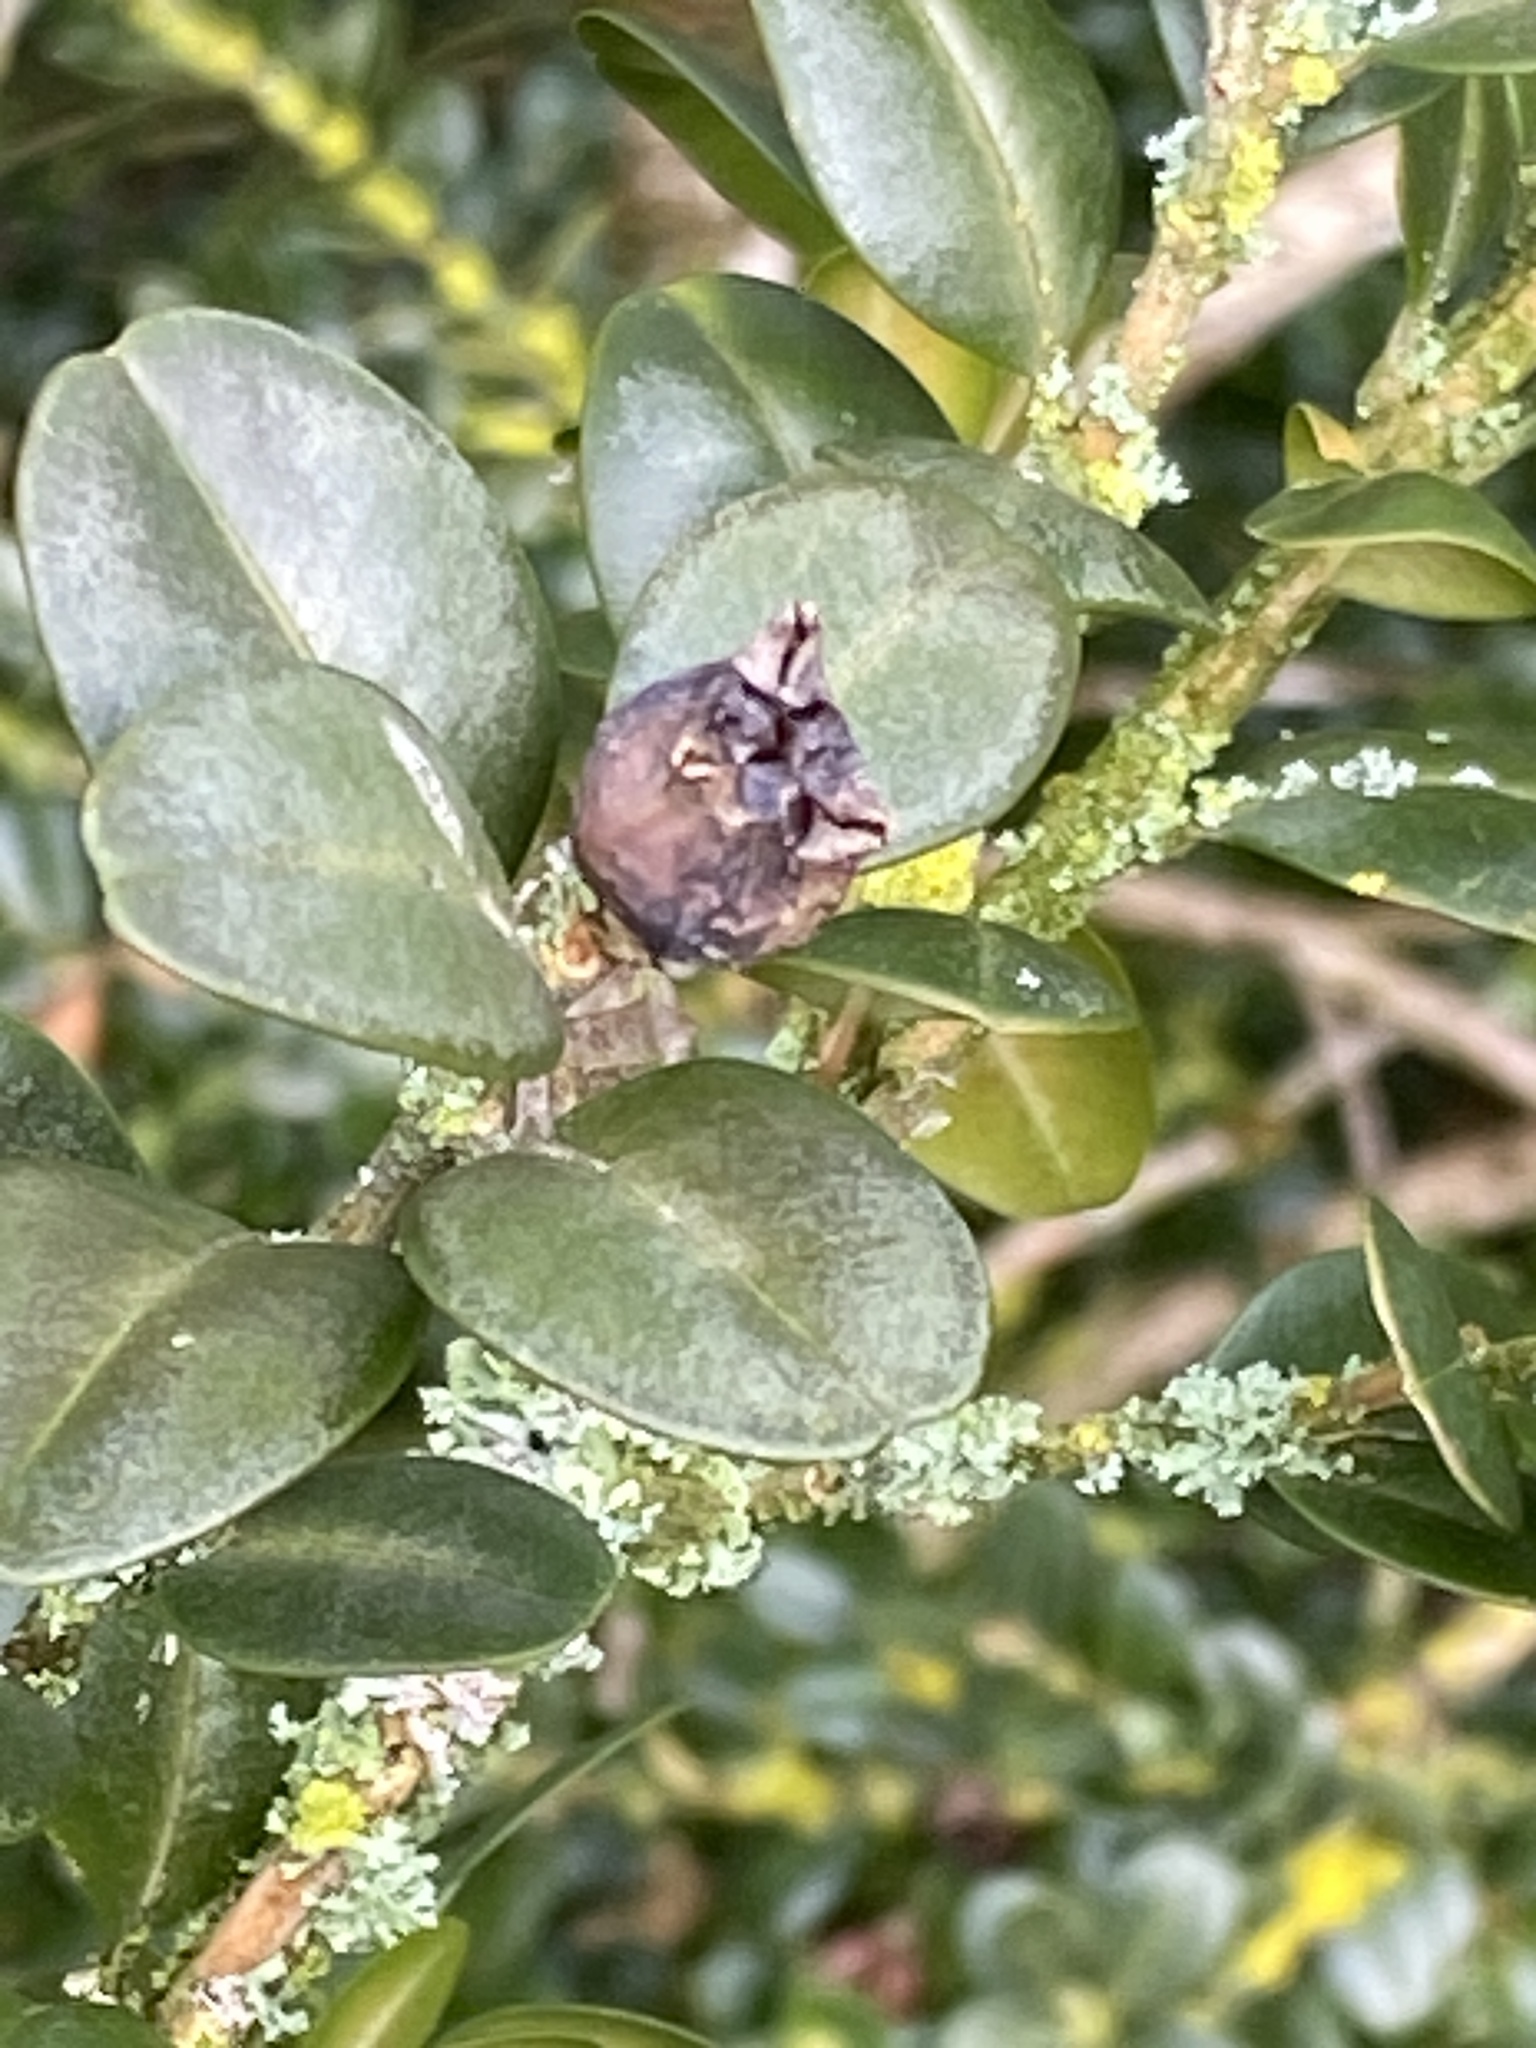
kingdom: Plantae
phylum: Tracheophyta
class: Magnoliopsida
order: Buxales
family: Buxaceae
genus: Buxus
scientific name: Buxus sempervirens
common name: Box
